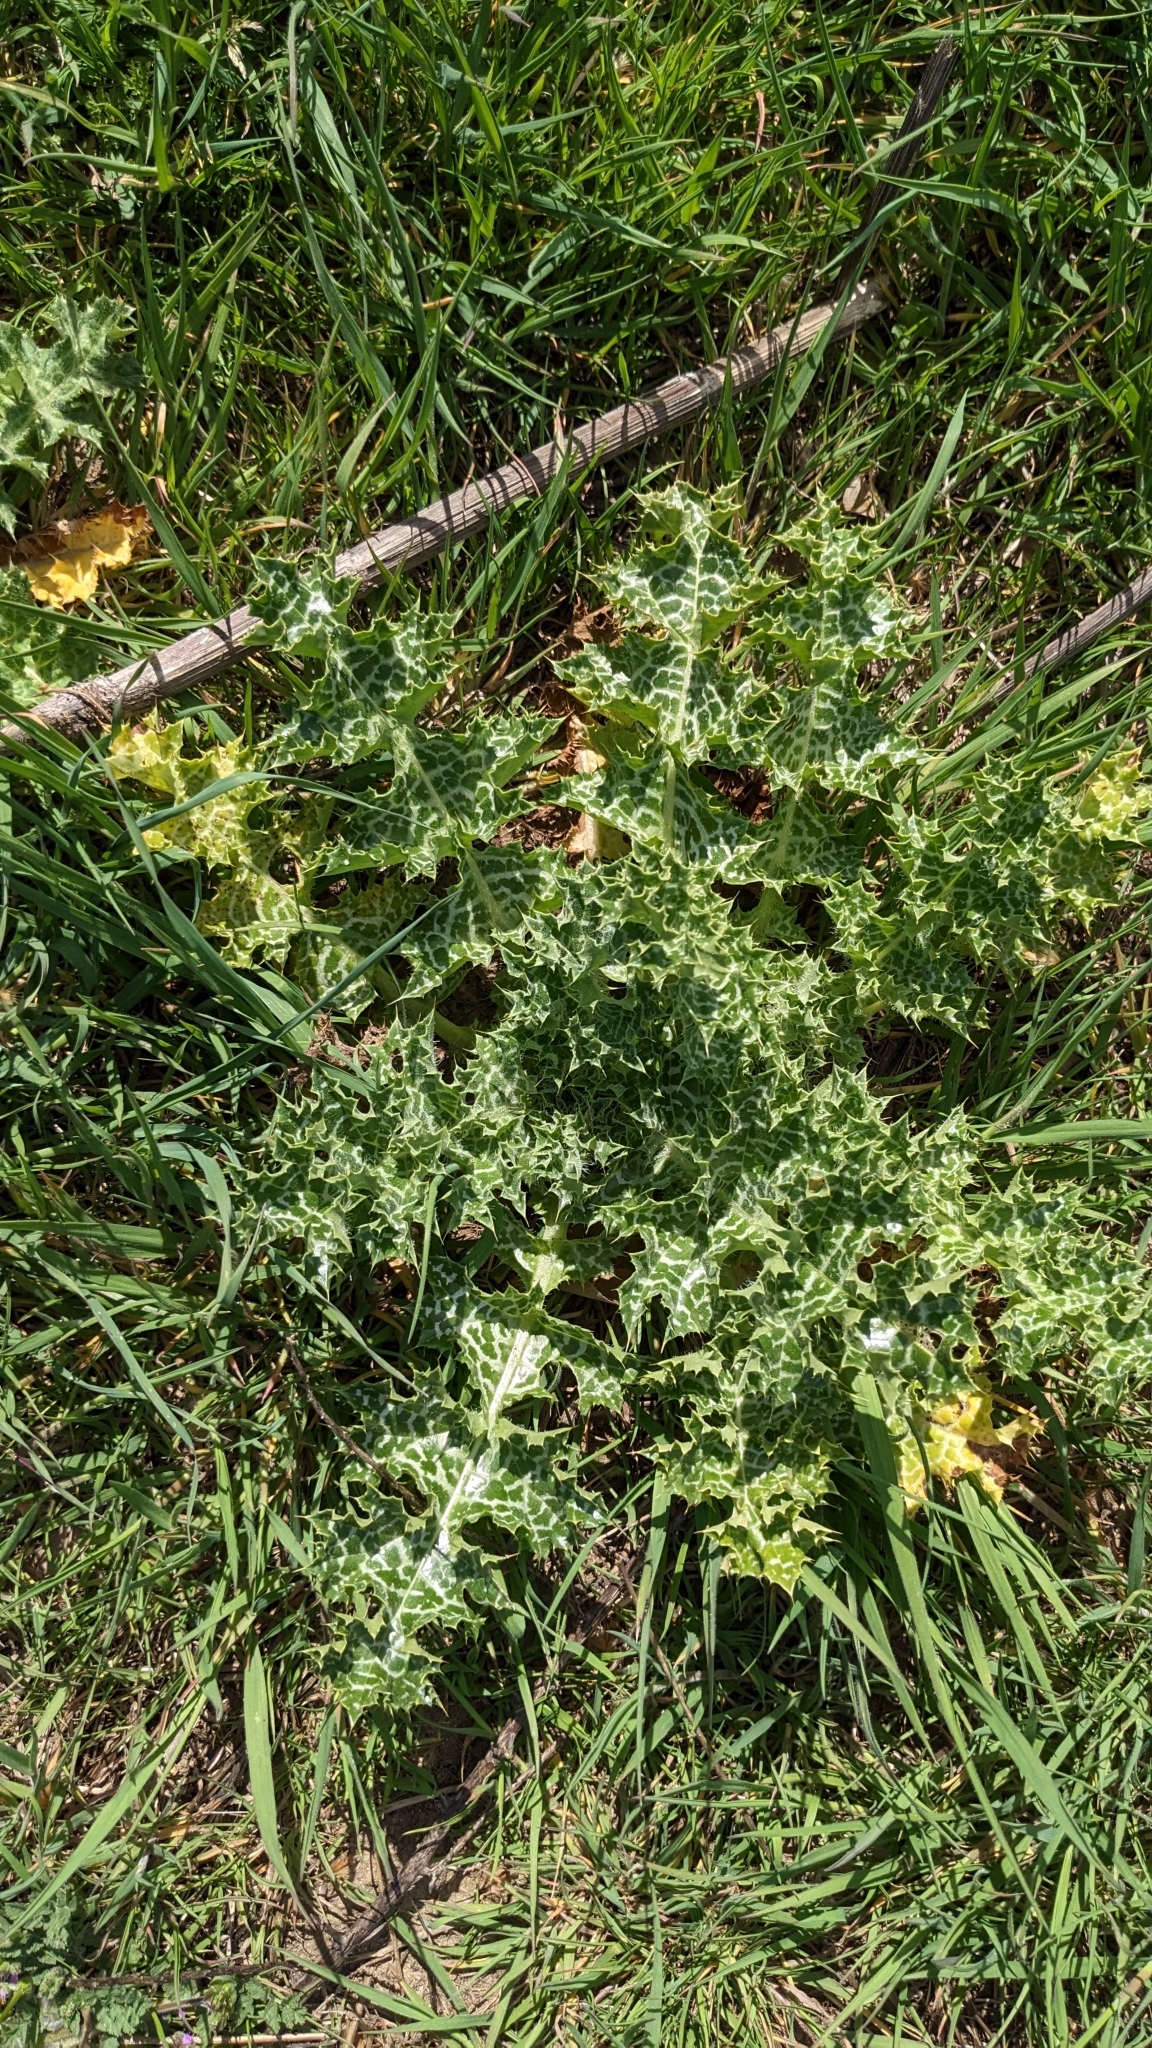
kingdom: Plantae
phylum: Tracheophyta
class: Magnoliopsida
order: Asterales
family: Asteraceae
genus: Silybum
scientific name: Silybum marianum
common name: Milk thistle
